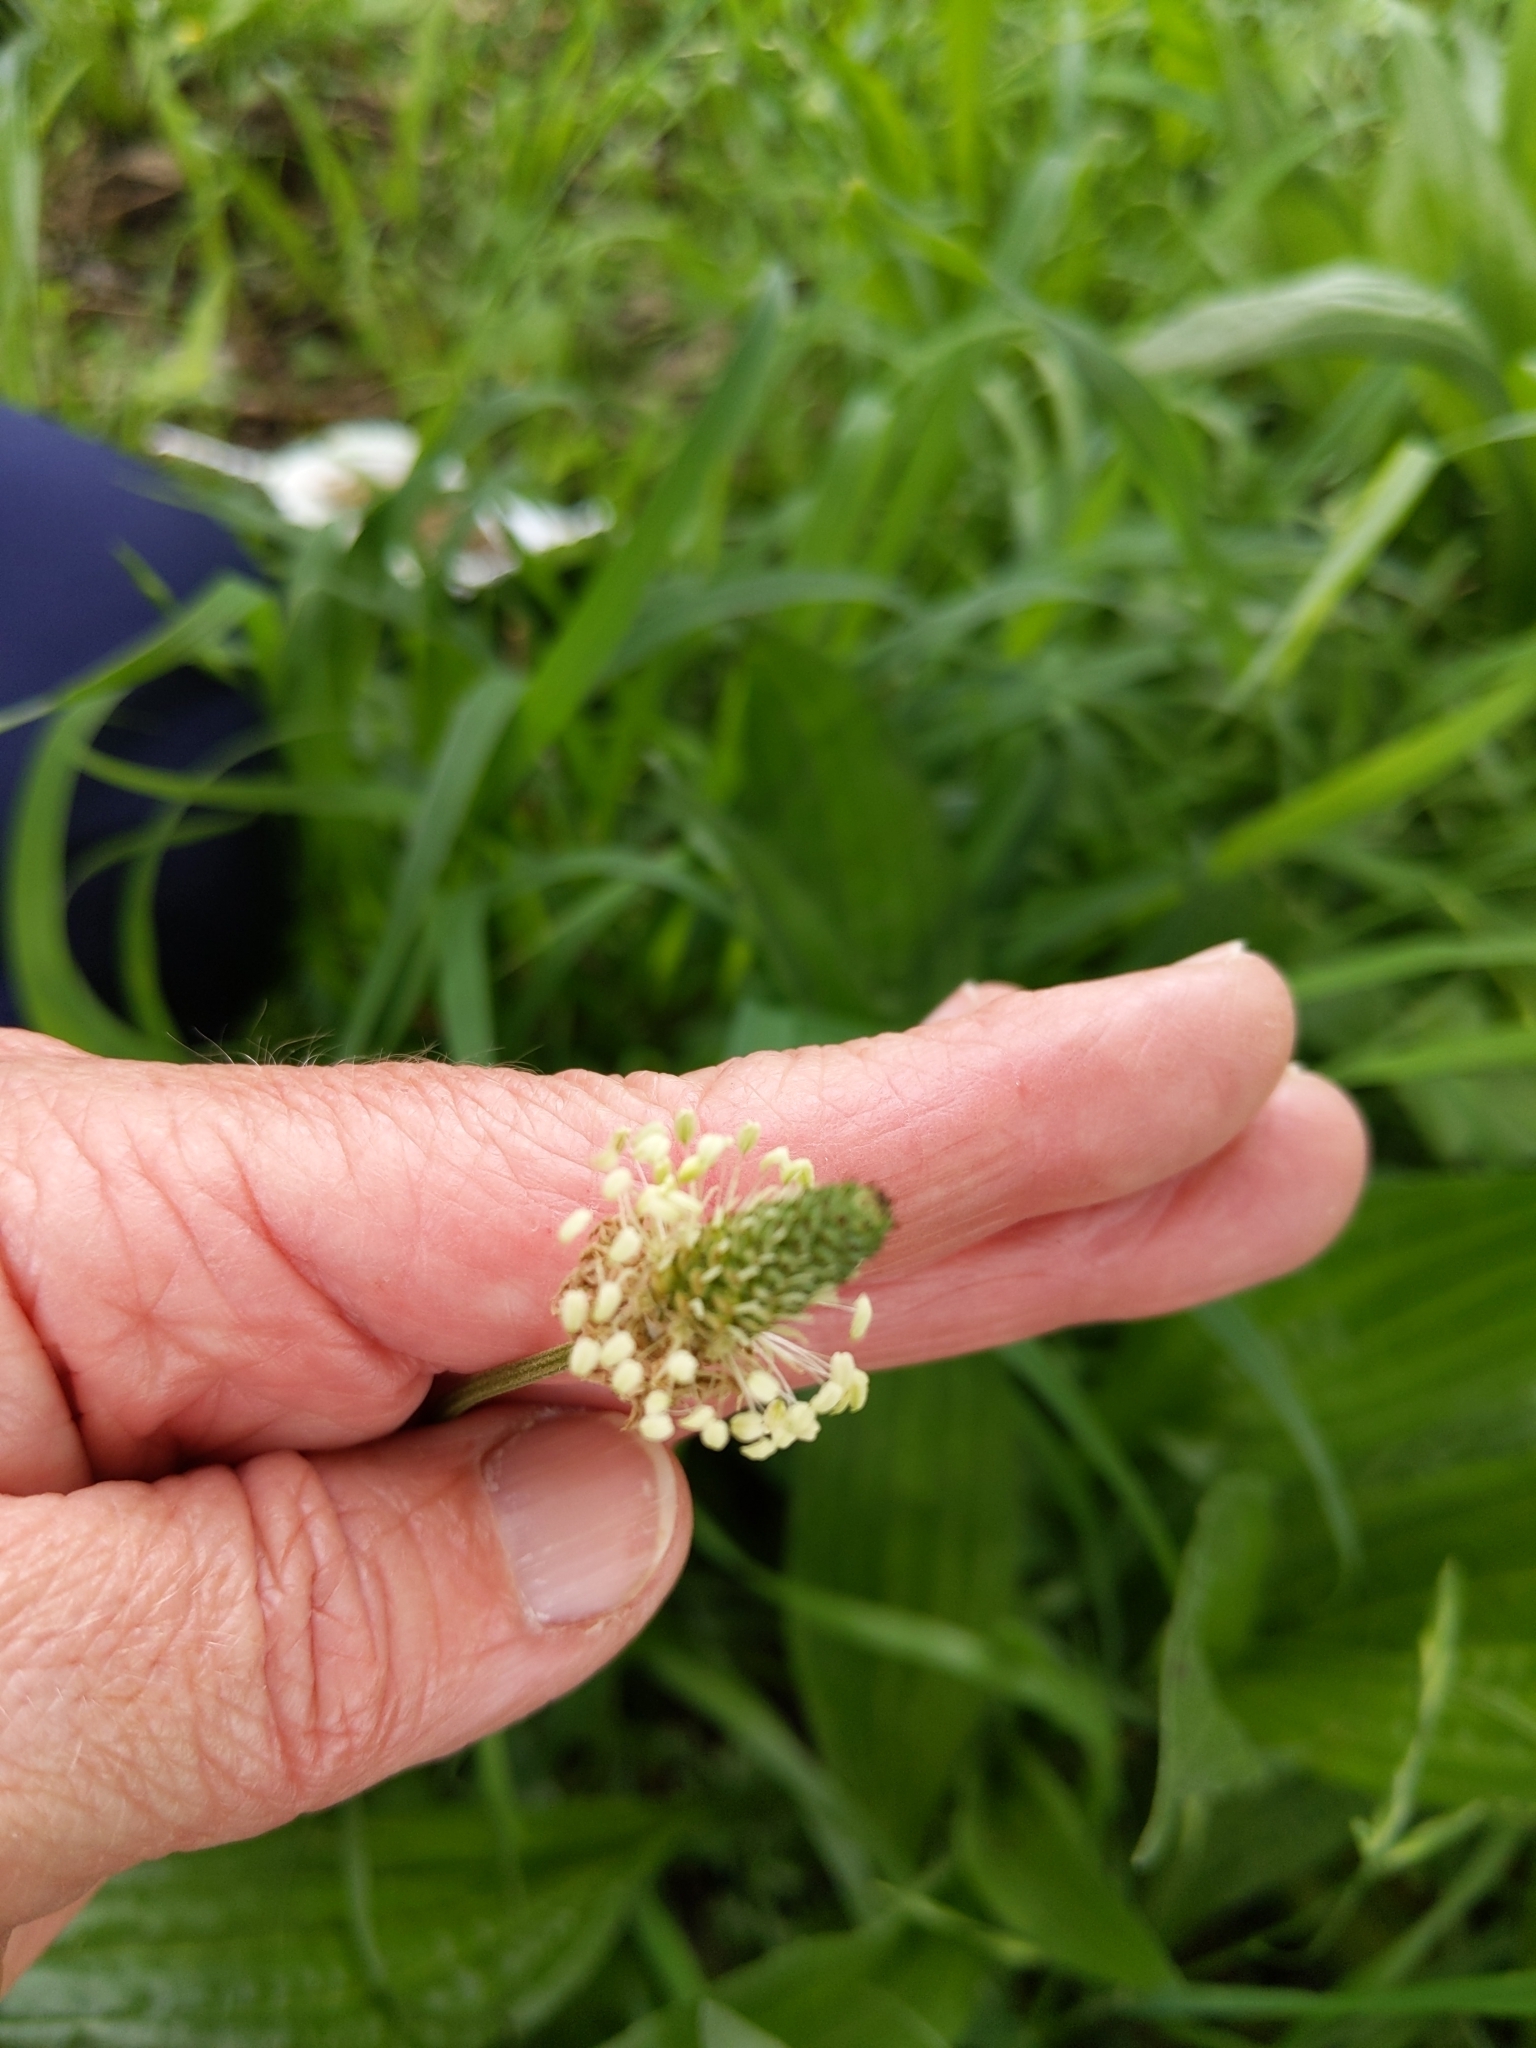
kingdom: Plantae
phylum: Tracheophyta
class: Magnoliopsida
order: Lamiales
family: Plantaginaceae
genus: Plantago
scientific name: Plantago lanceolata
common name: Ribwort plantain
